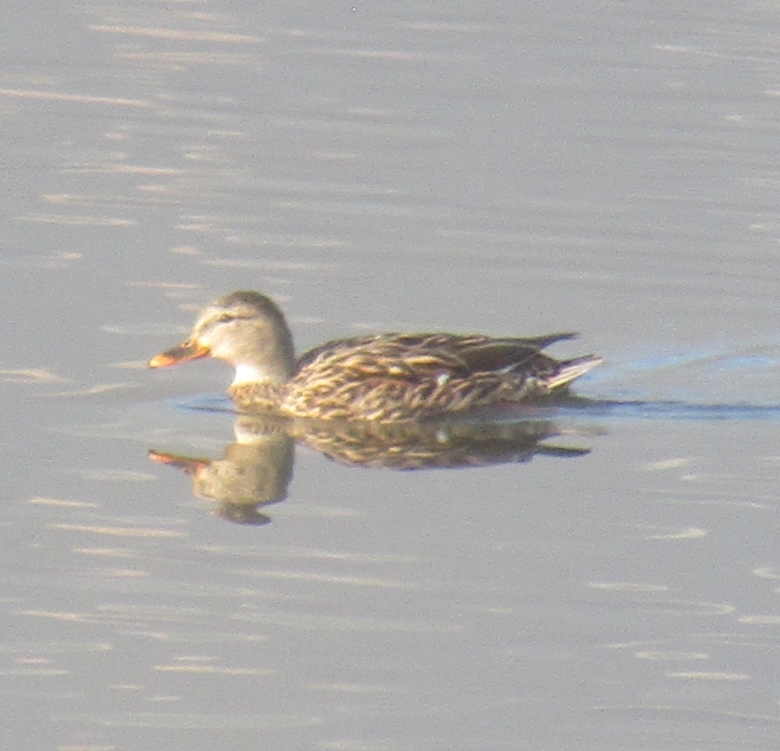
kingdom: Animalia
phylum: Chordata
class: Aves
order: Anseriformes
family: Anatidae
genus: Anas
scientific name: Anas platyrhynchos
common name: Mallard
